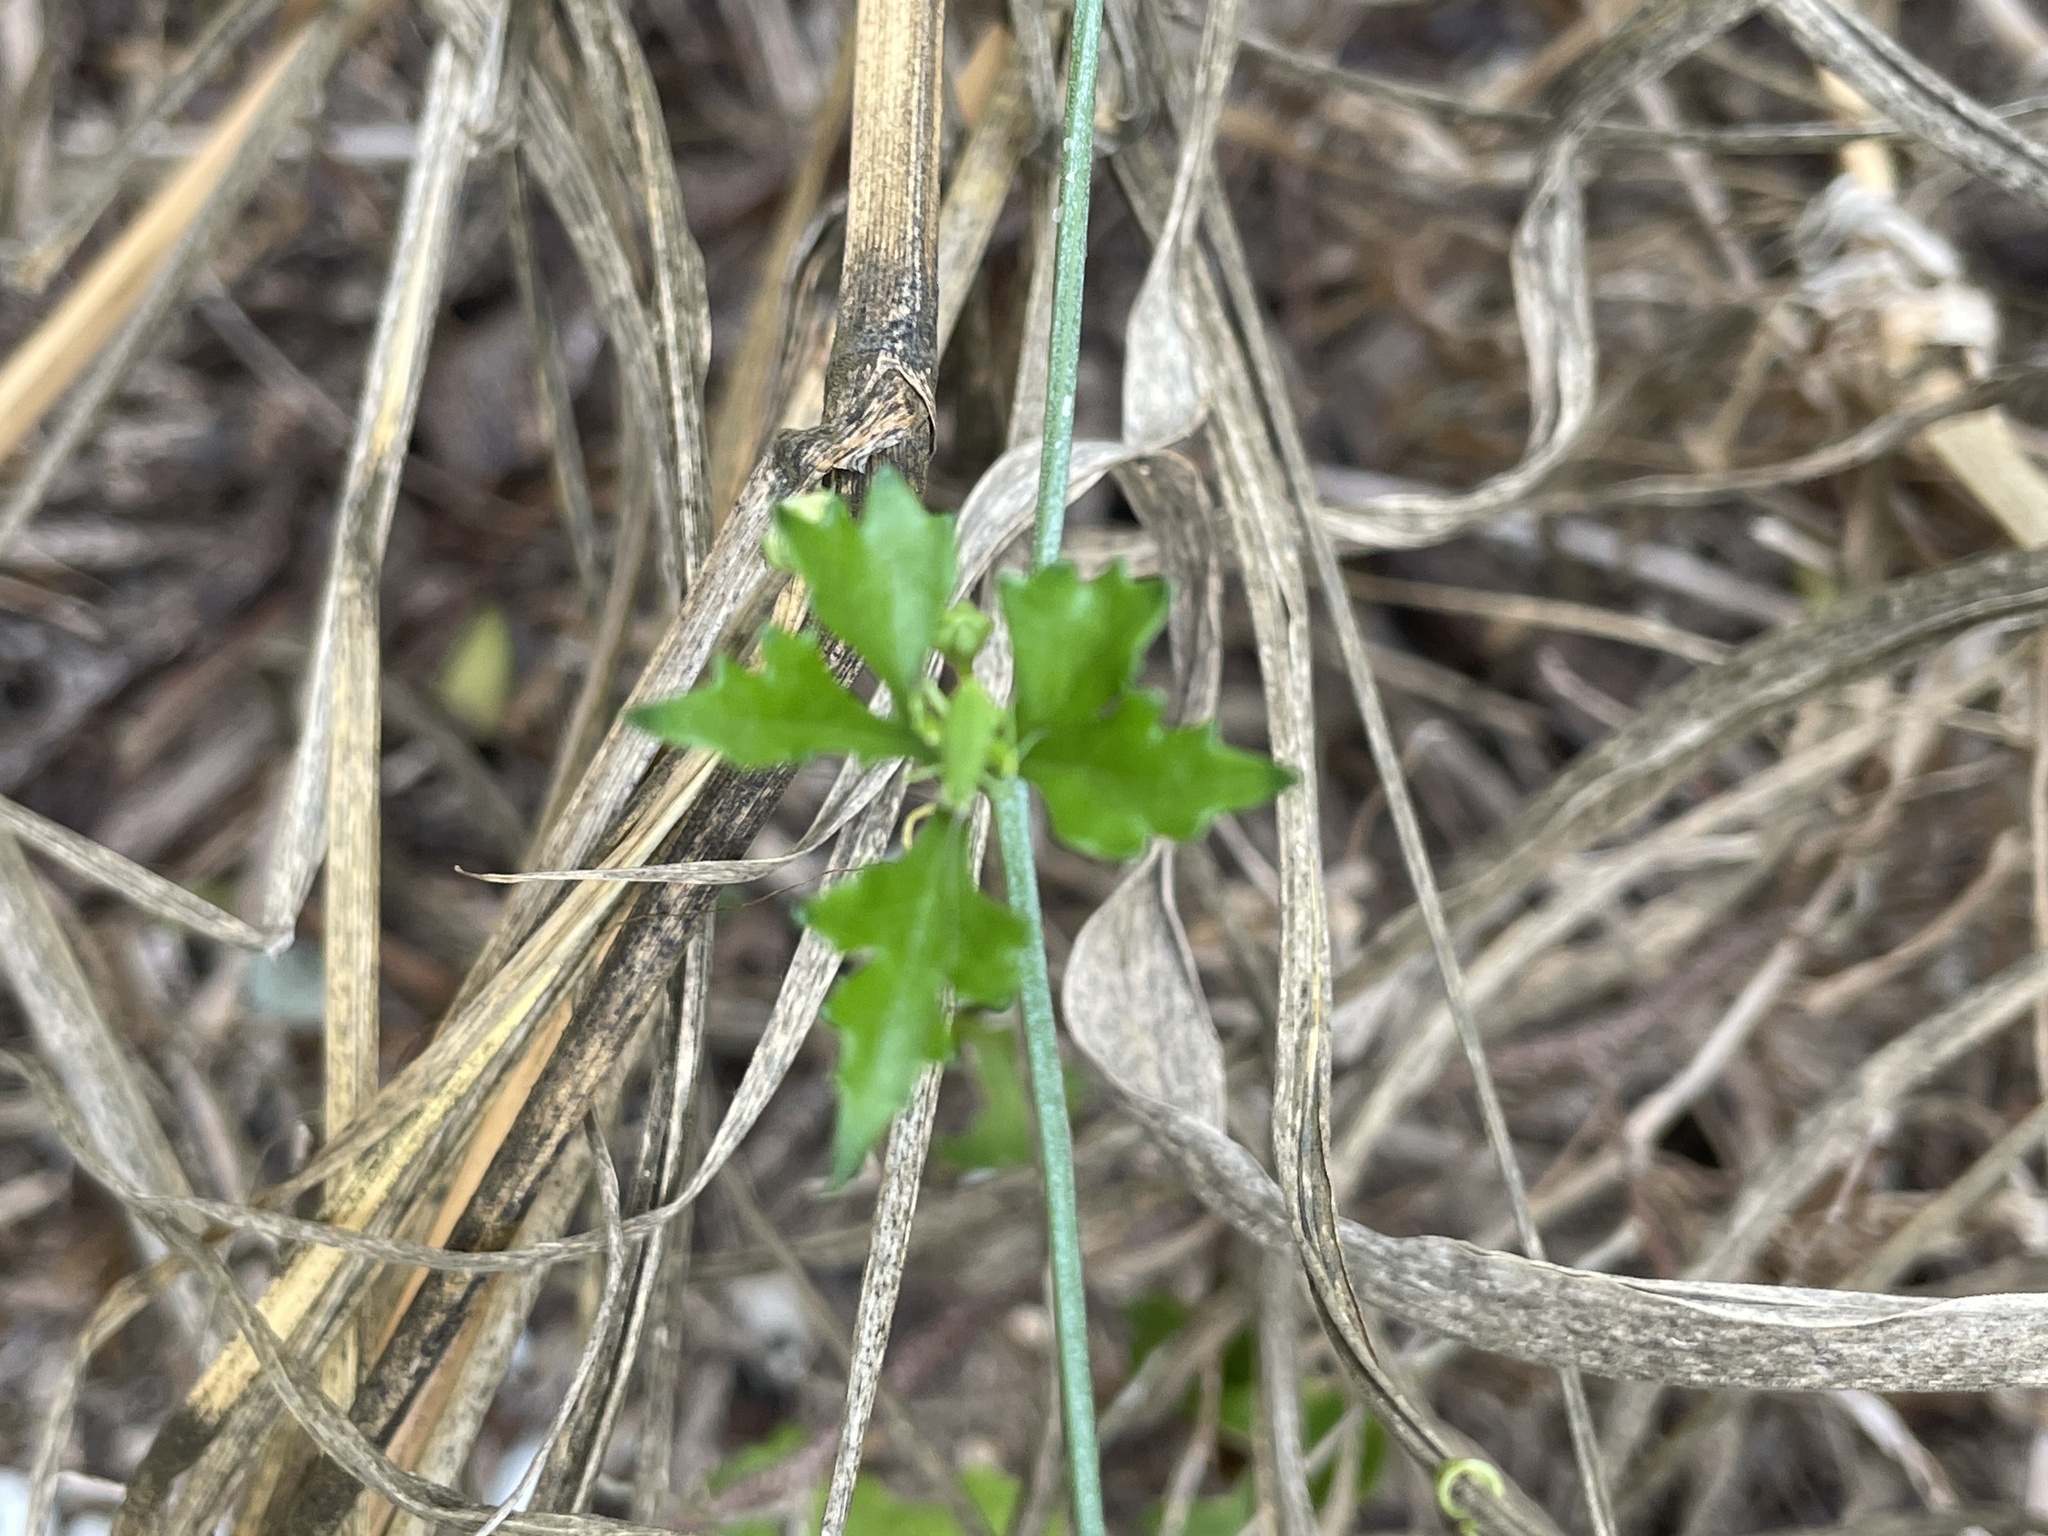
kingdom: Plantae
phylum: Tracheophyta
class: Magnoliopsida
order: Cucurbitales
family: Cucurbitaceae
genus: Ibervillea
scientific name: Ibervillea lindheimeri
